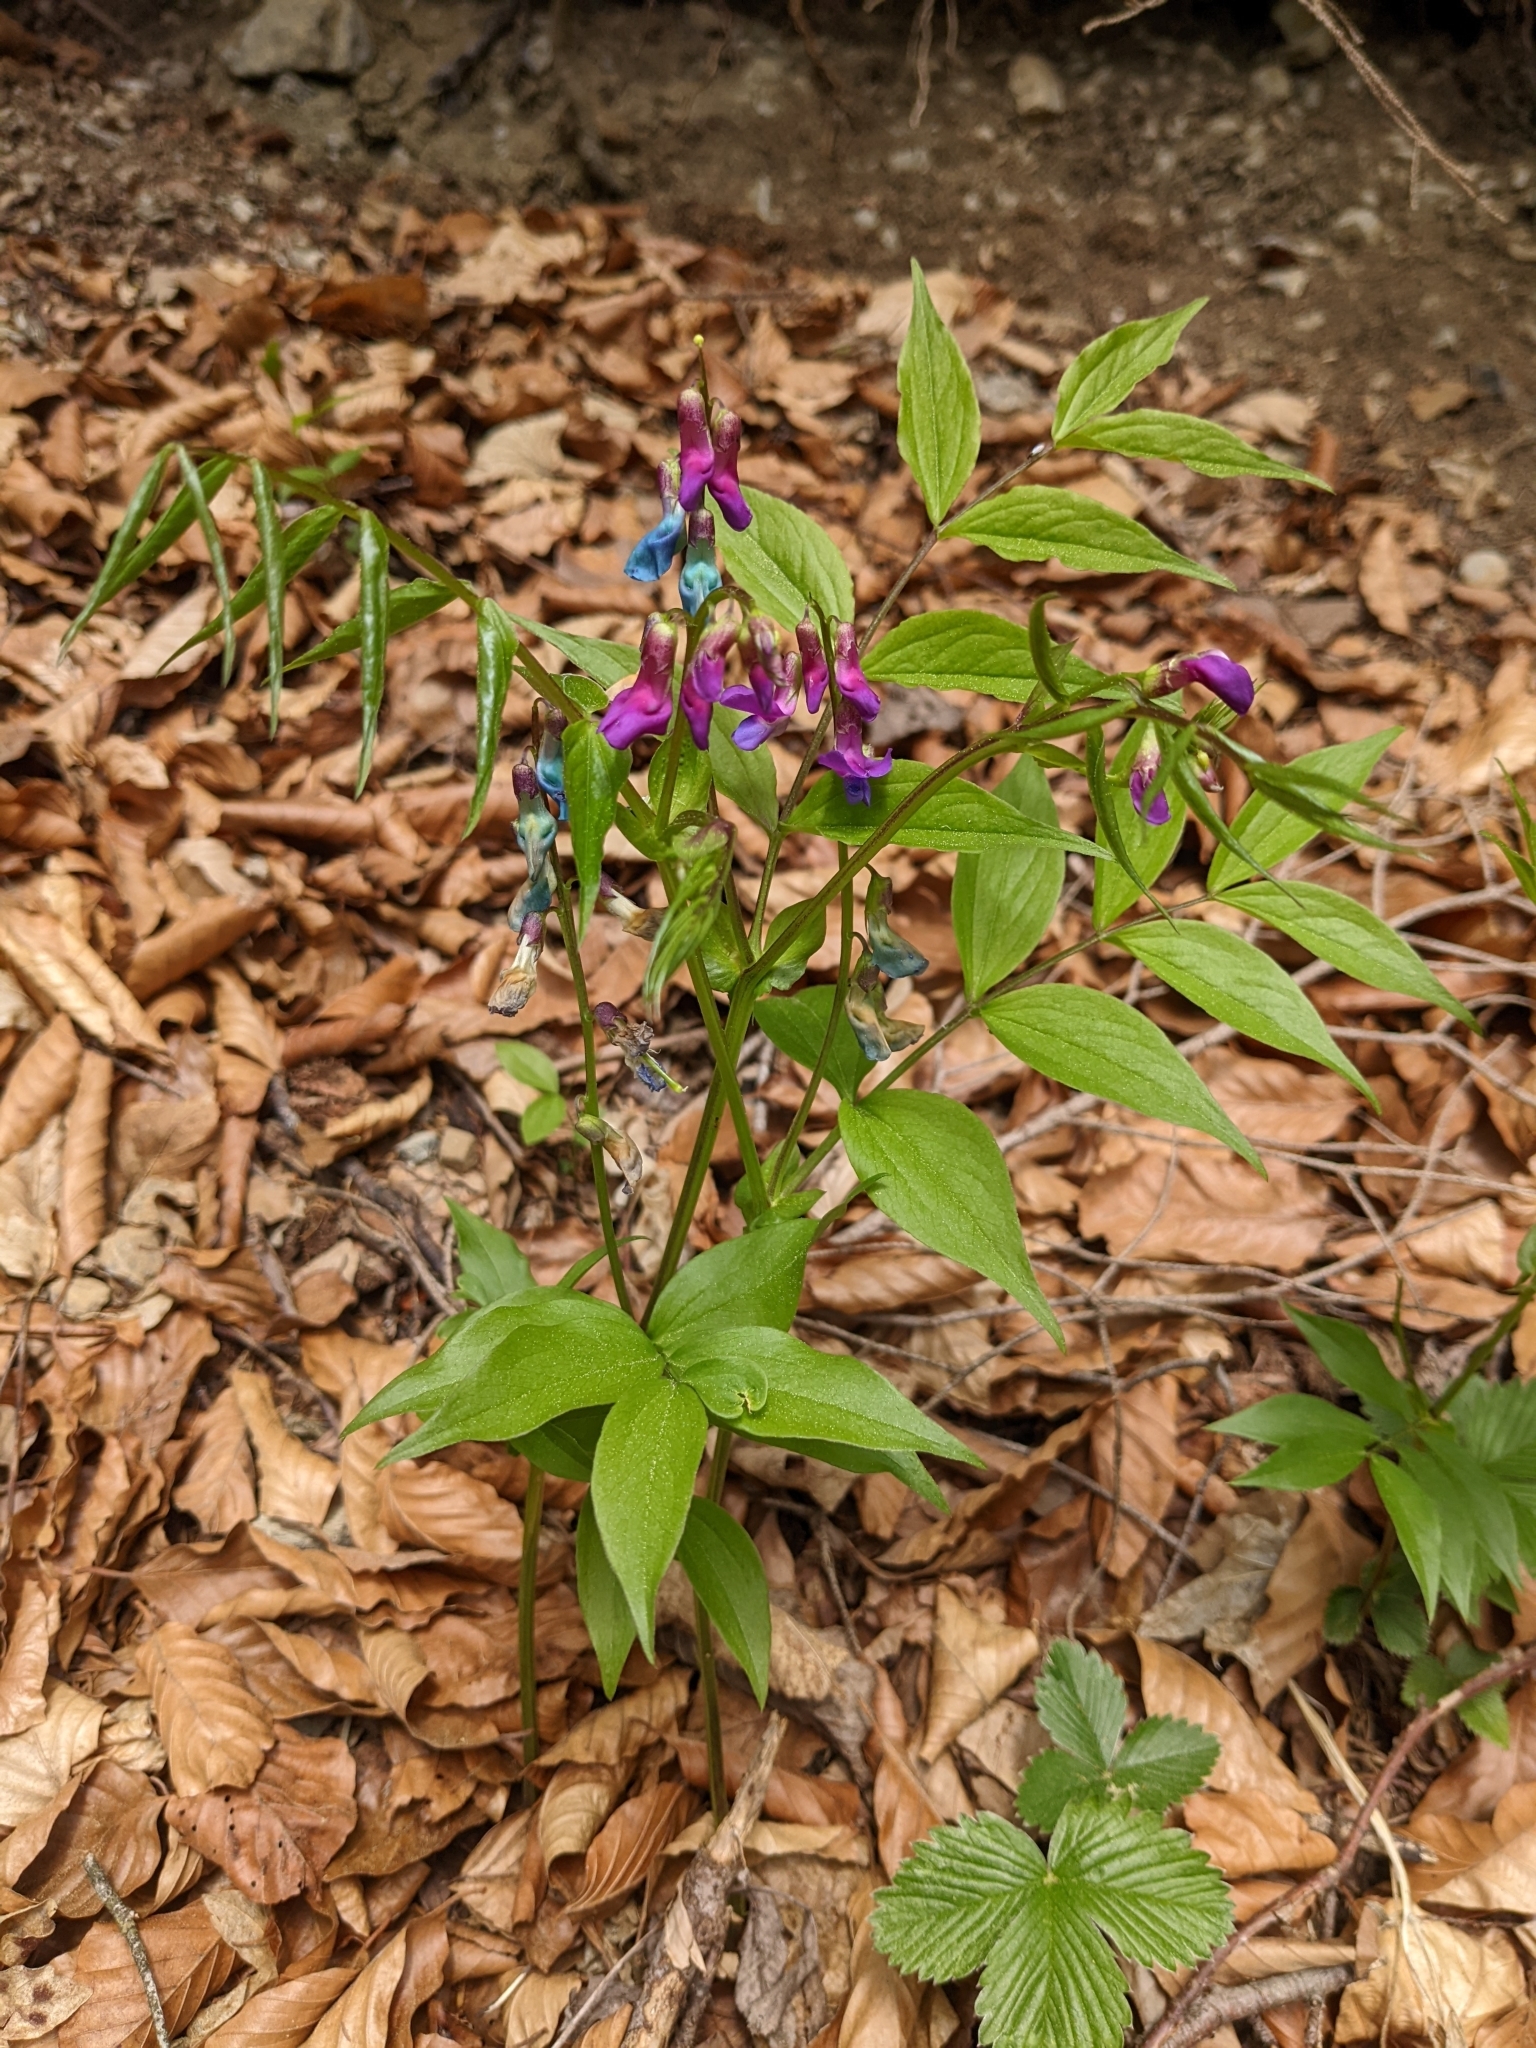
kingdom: Plantae
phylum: Tracheophyta
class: Magnoliopsida
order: Fabales
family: Fabaceae
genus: Lathyrus
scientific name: Lathyrus vernus
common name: Spring pea
